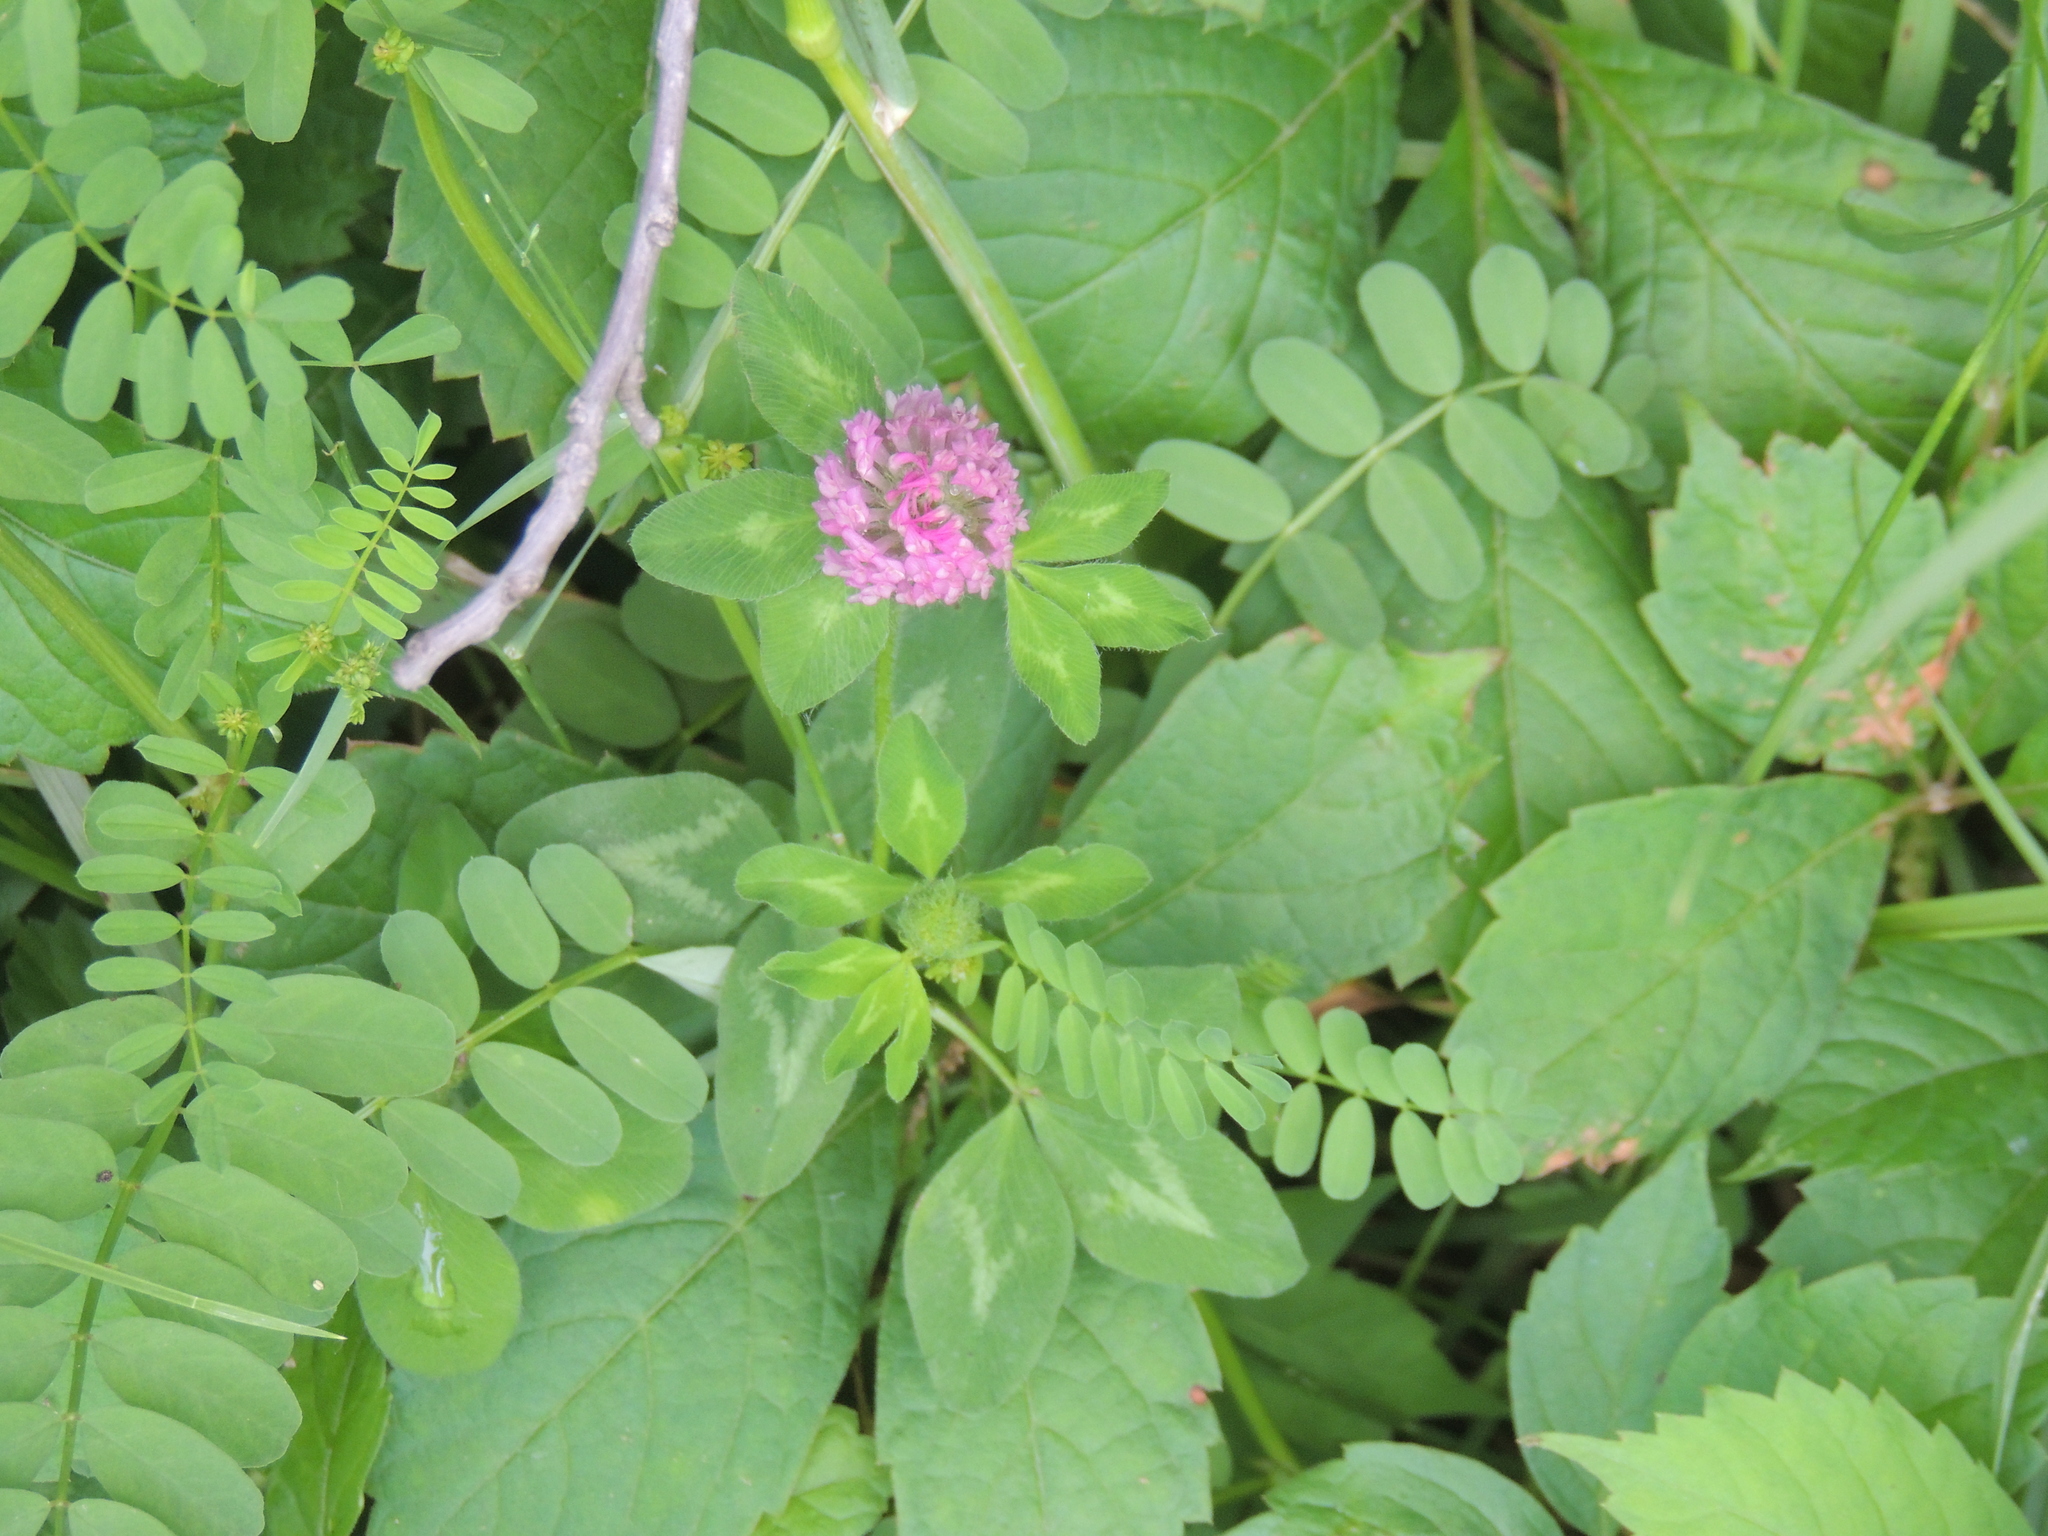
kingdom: Plantae
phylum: Tracheophyta
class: Magnoliopsida
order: Fabales
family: Fabaceae
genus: Trifolium
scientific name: Trifolium pratense
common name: Red clover
